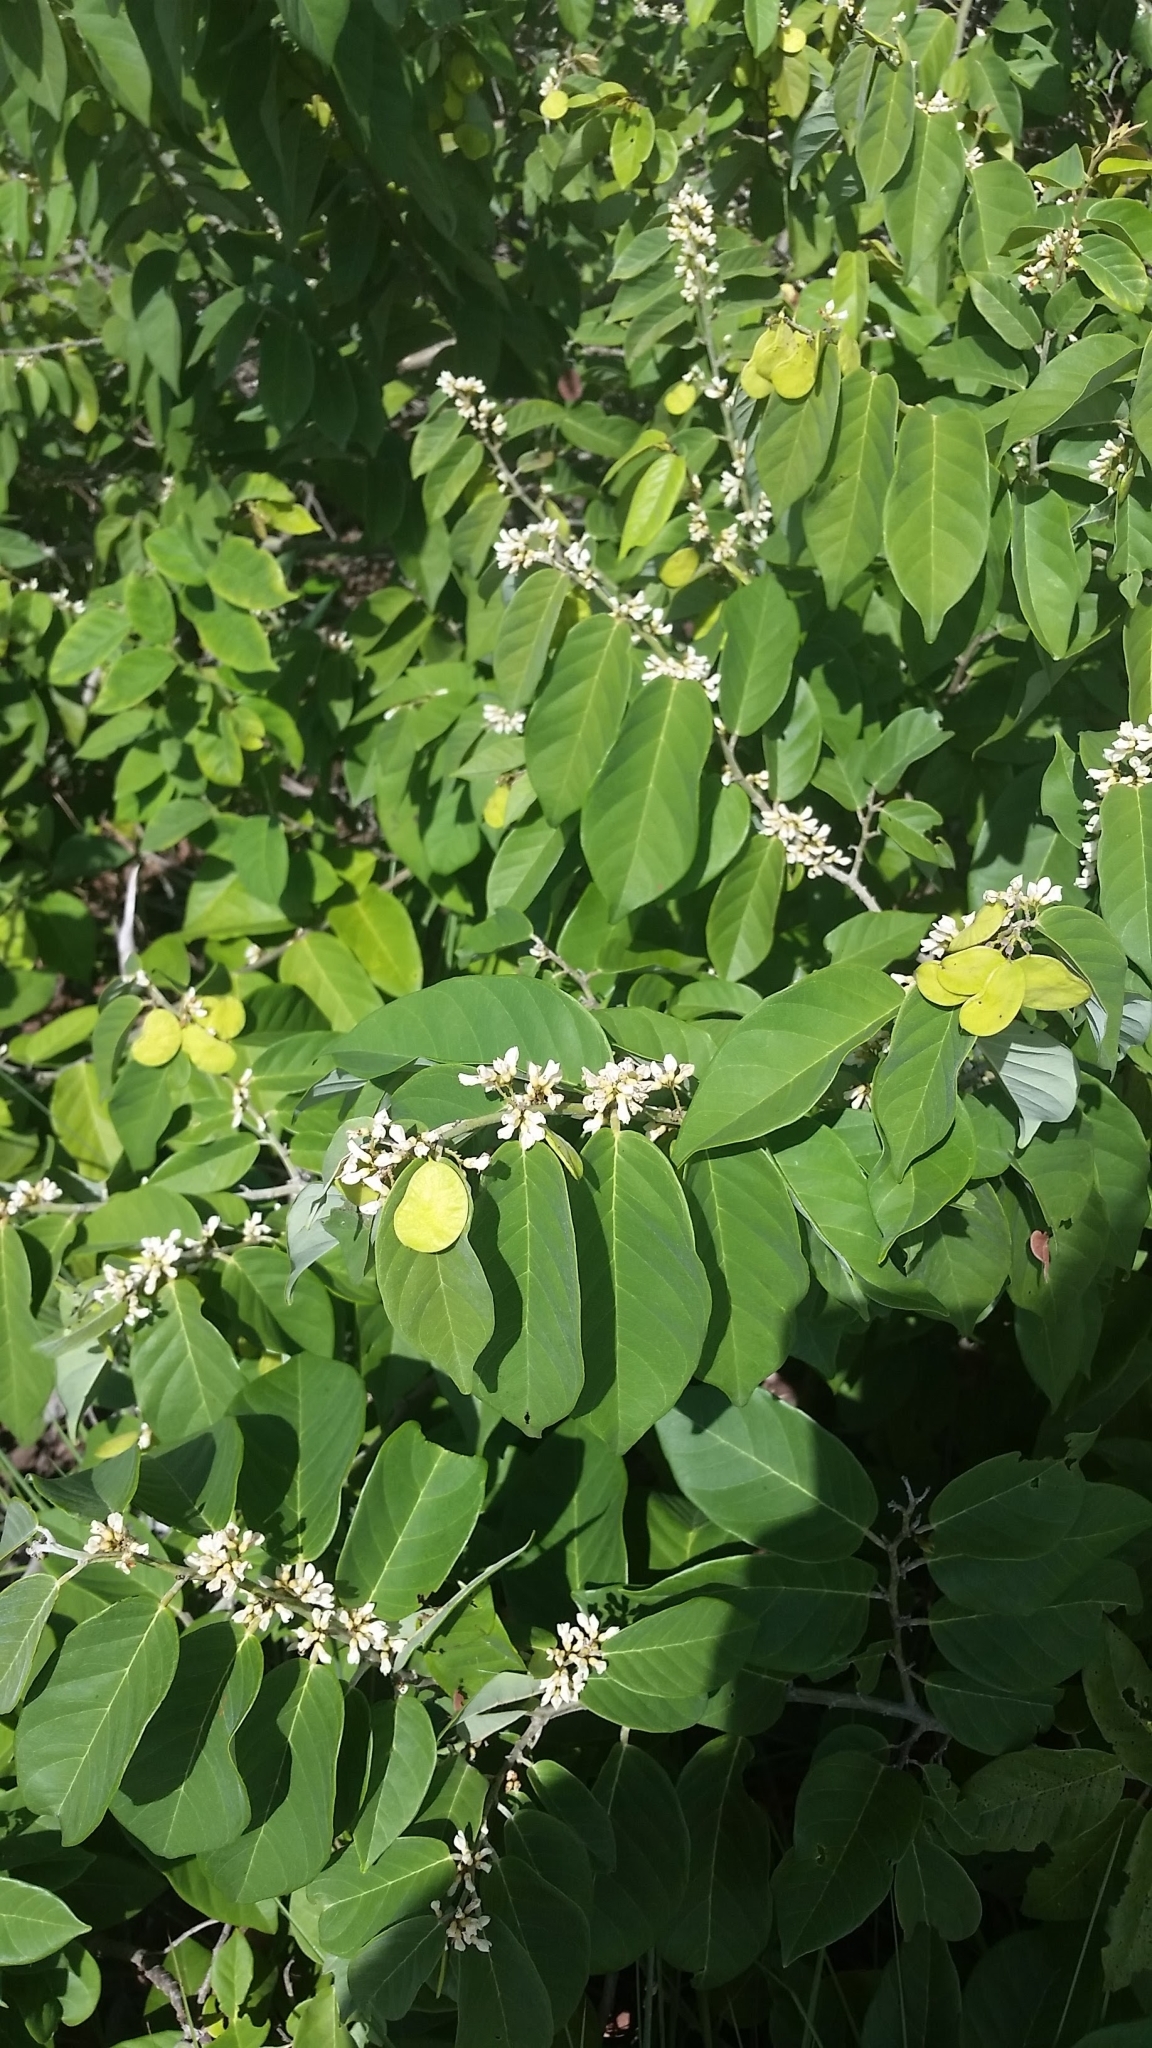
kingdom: Plantae
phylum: Tracheophyta
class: Magnoliopsida
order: Fabales
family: Fabaceae
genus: Dalbergia
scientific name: Dalbergia ecastaphyllum
